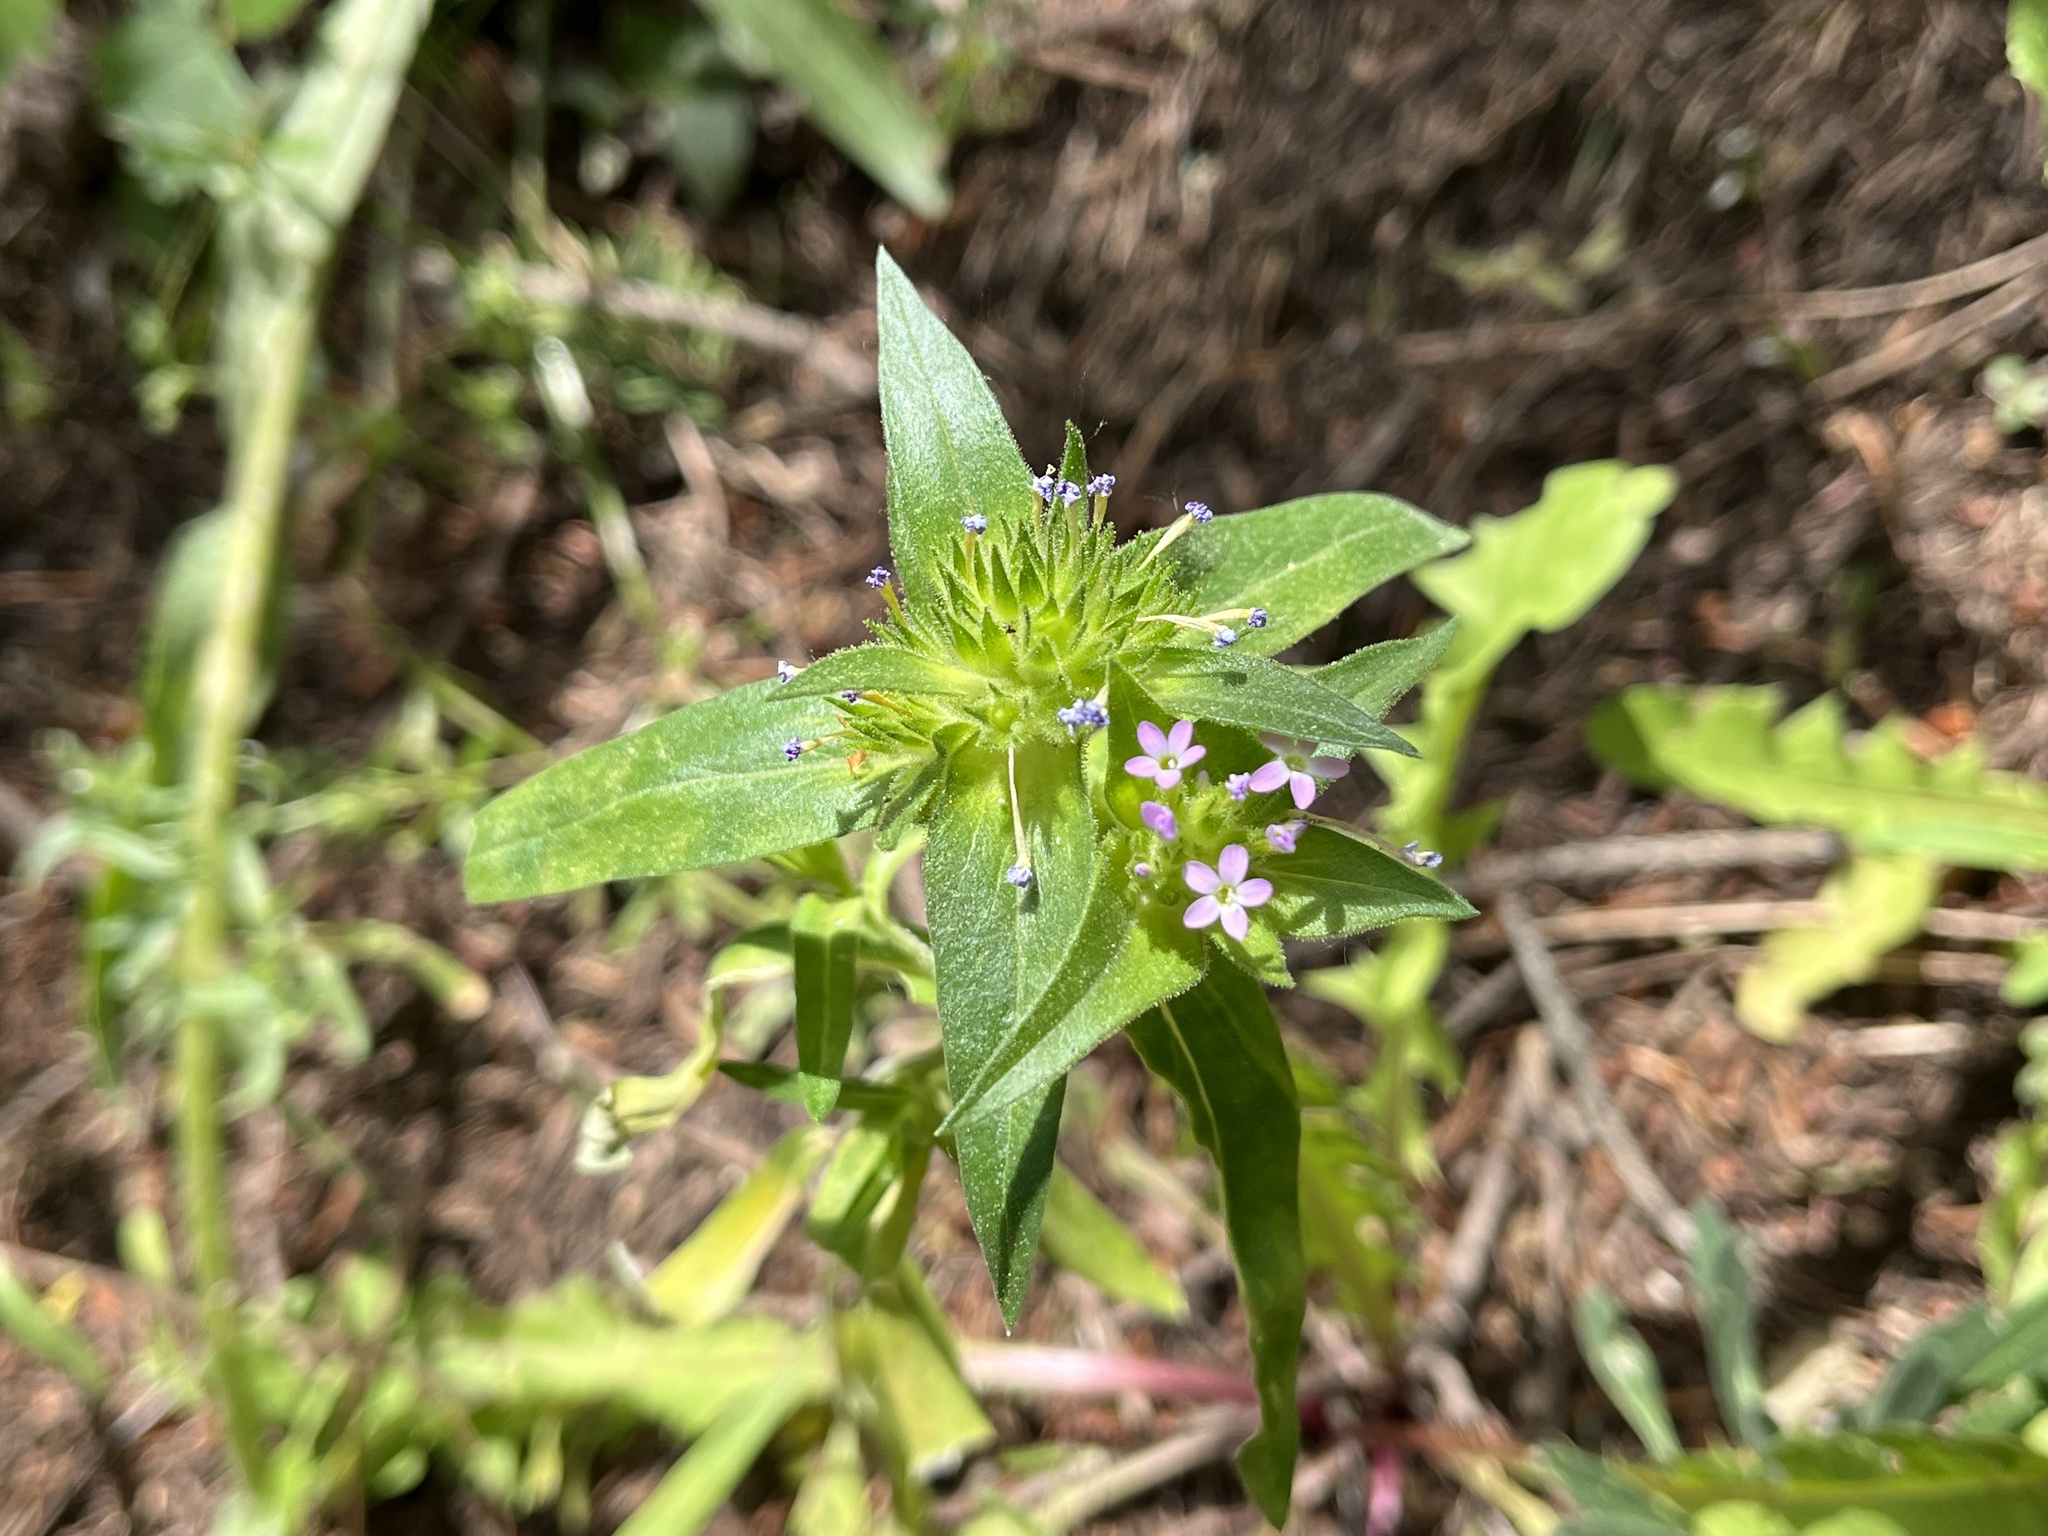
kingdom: Plantae
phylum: Tracheophyta
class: Magnoliopsida
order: Ericales
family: Polemoniaceae
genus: Collomia
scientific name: Collomia linearis
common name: Tiny trumpet
